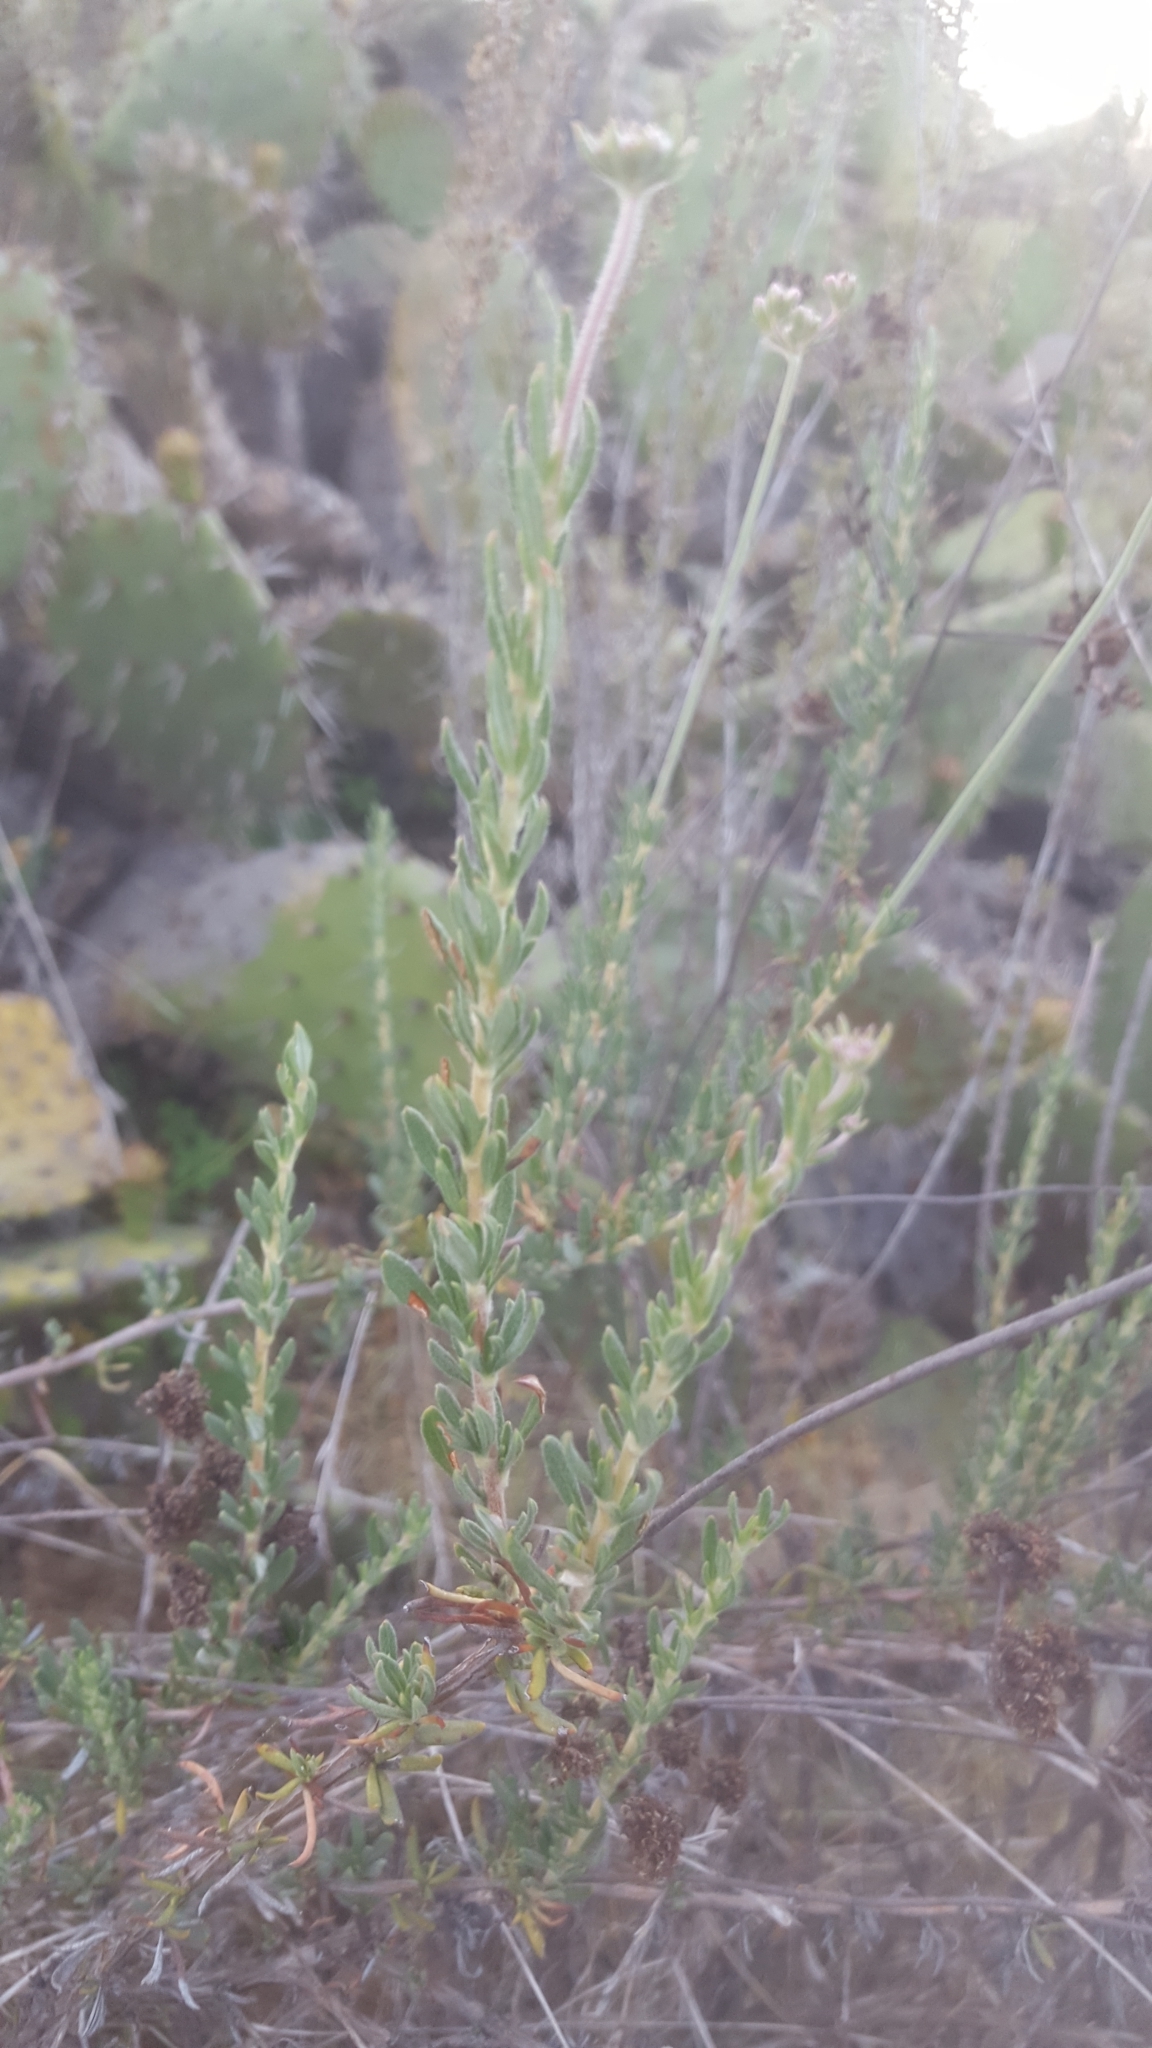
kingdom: Plantae
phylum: Tracheophyta
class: Magnoliopsida
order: Caryophyllales
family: Polygonaceae
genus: Eriogonum
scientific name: Eriogonum fasciculatum
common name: California wild buckwheat
